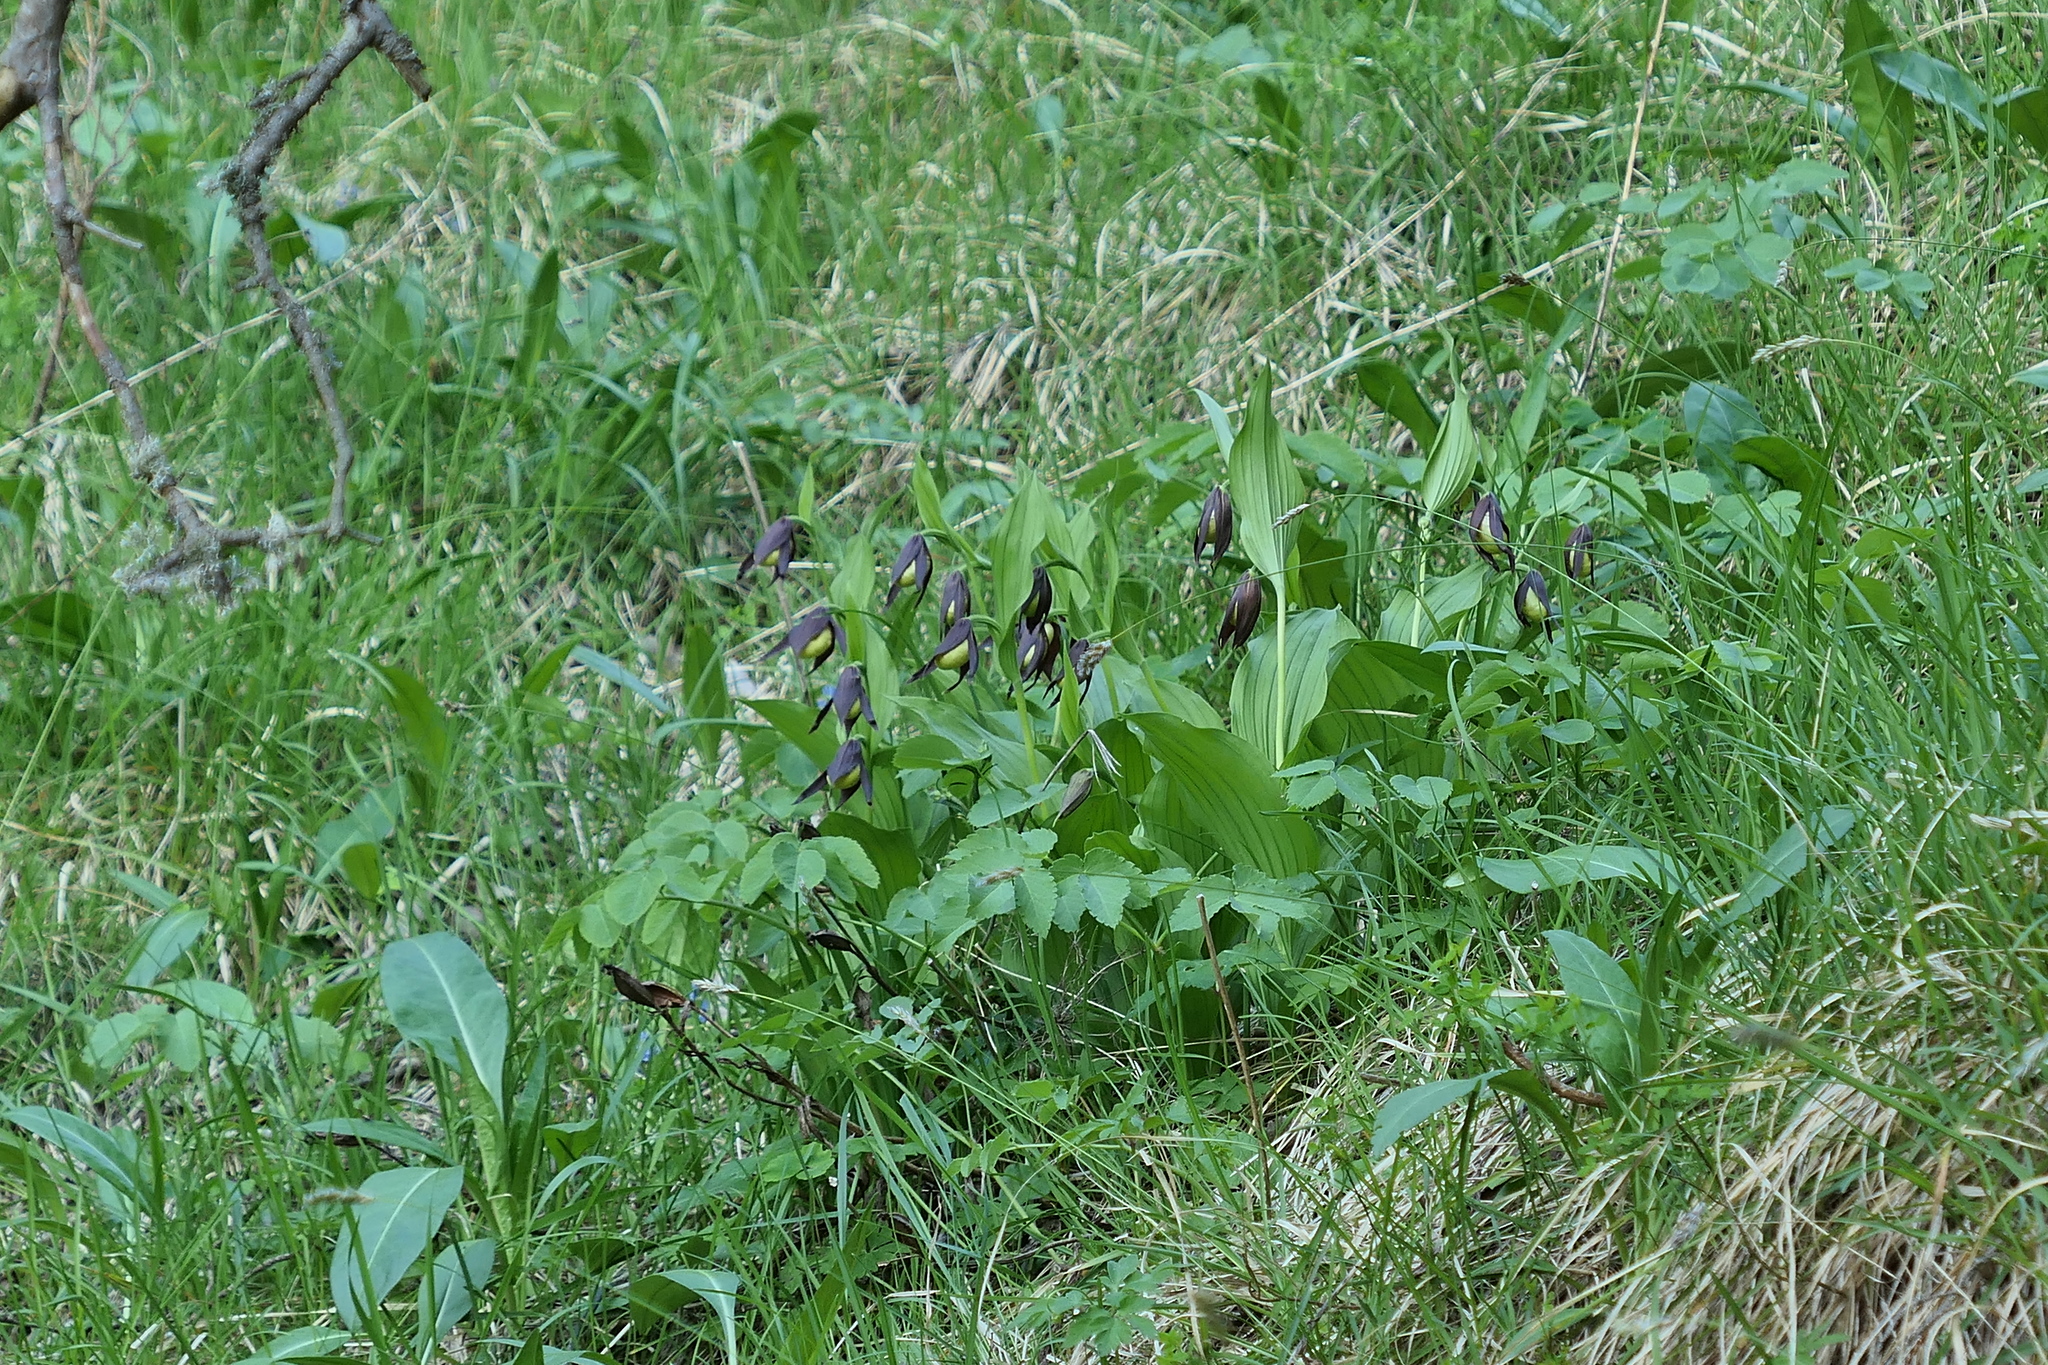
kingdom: Plantae
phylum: Tracheophyta
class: Liliopsida
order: Asparagales
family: Orchidaceae
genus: Cypripedium
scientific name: Cypripedium calceolus
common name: Lady's-slipper
